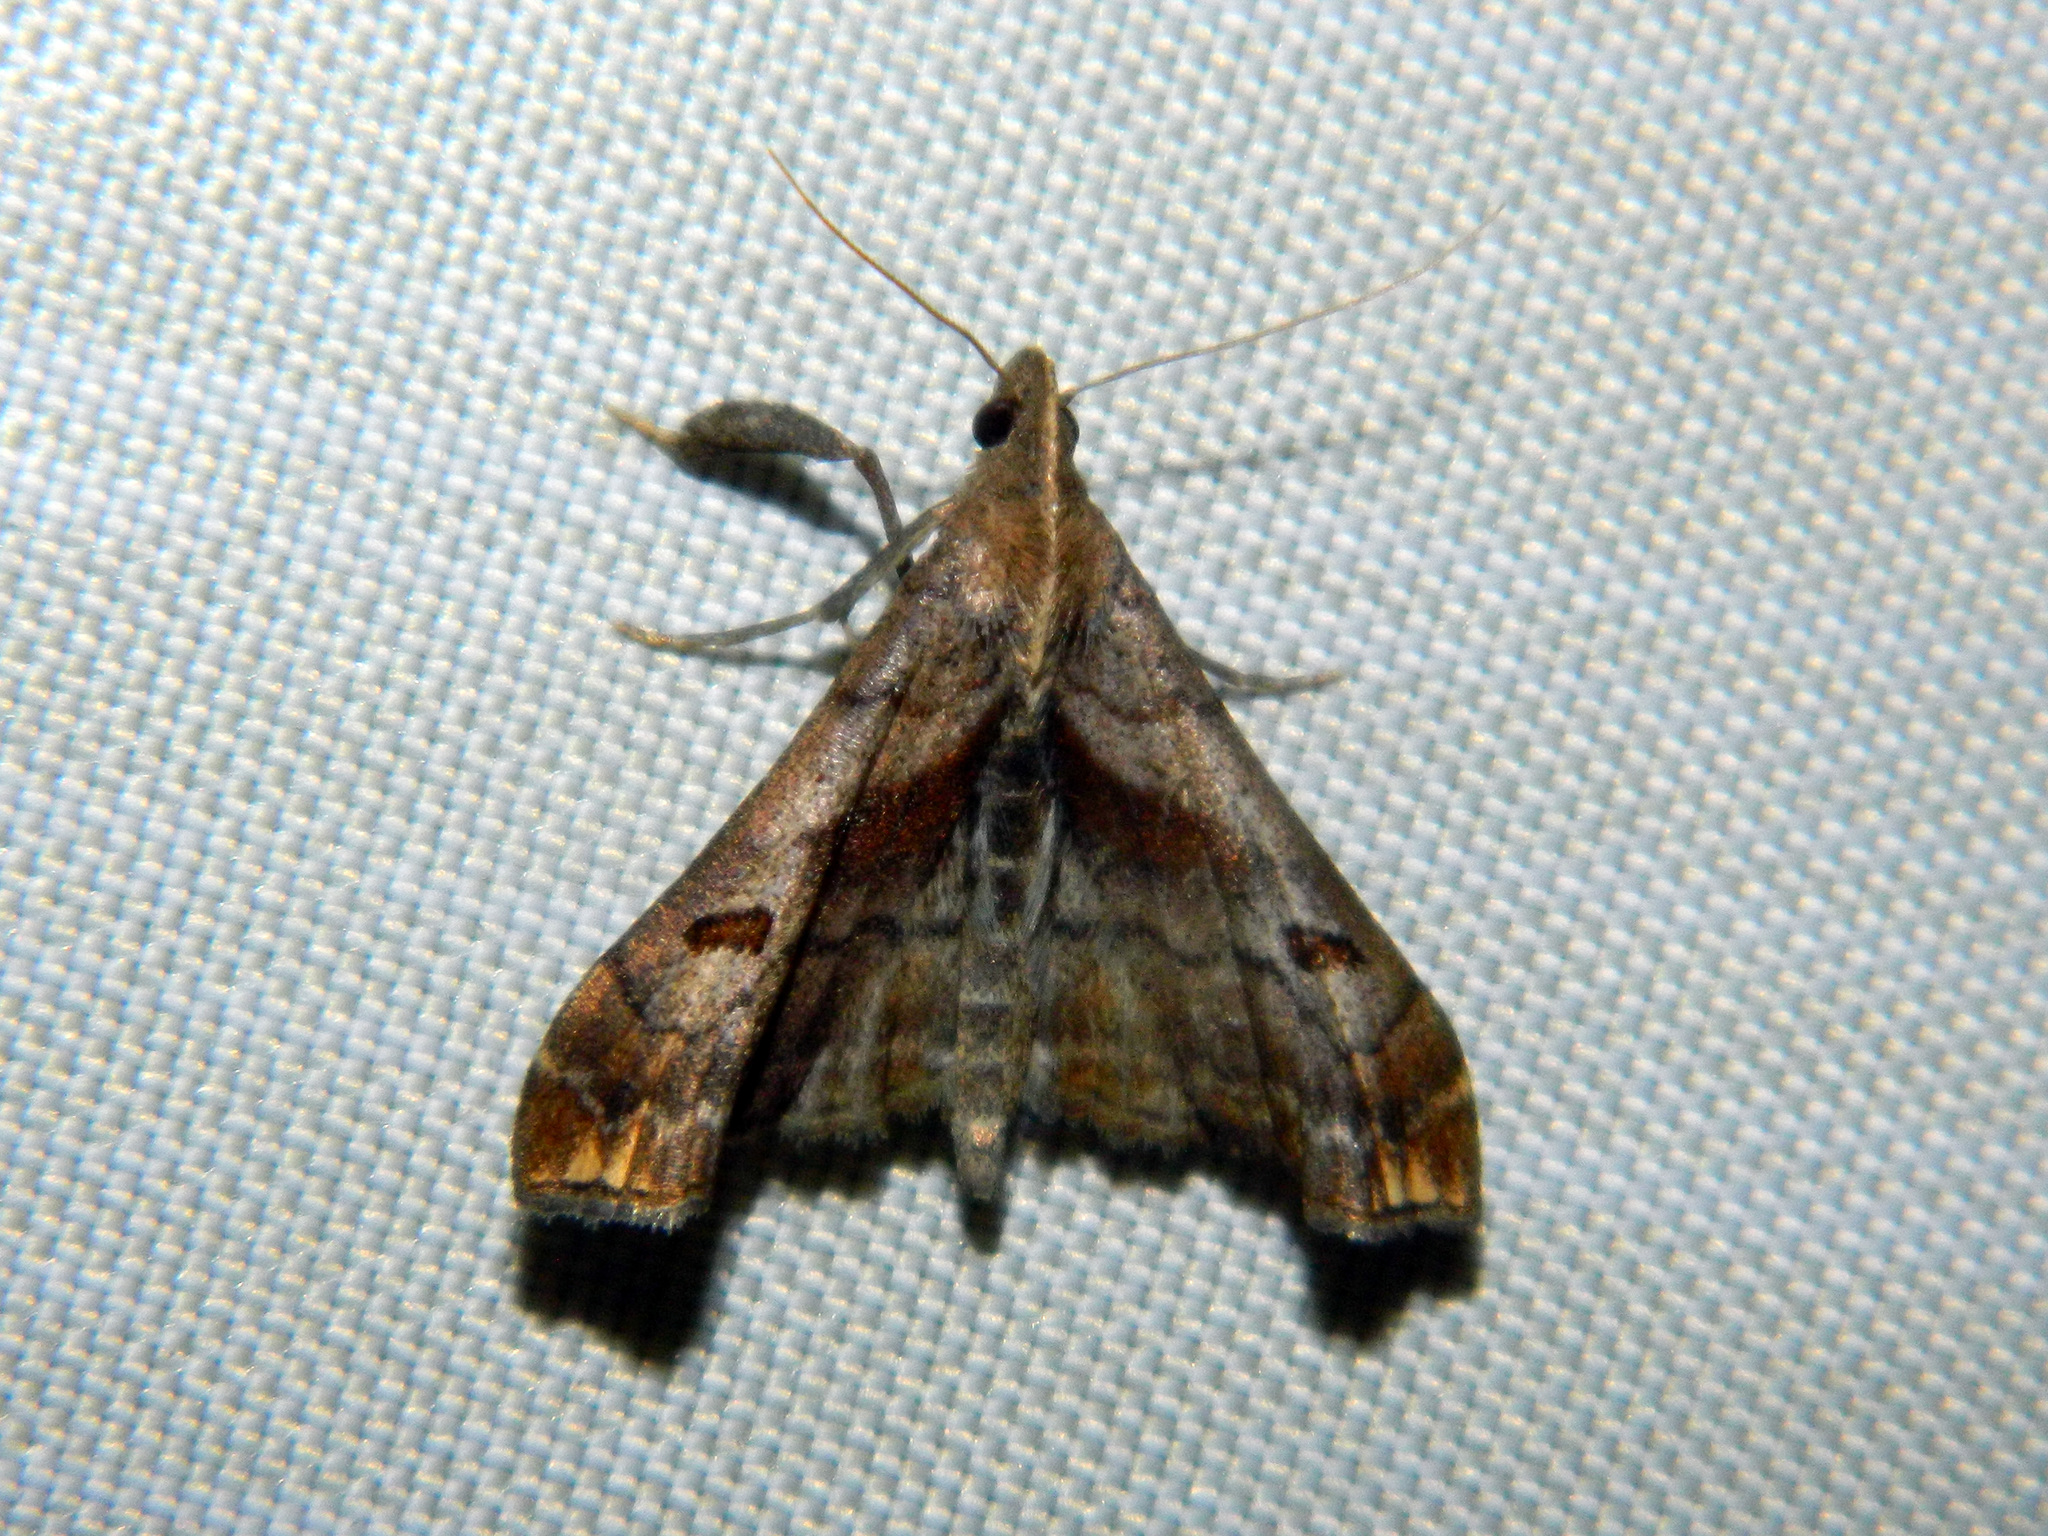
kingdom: Animalia
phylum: Arthropoda
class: Insecta
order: Lepidoptera
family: Erebidae
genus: Palthis
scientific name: Palthis angulalis
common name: Dark-spotted palthis moth
